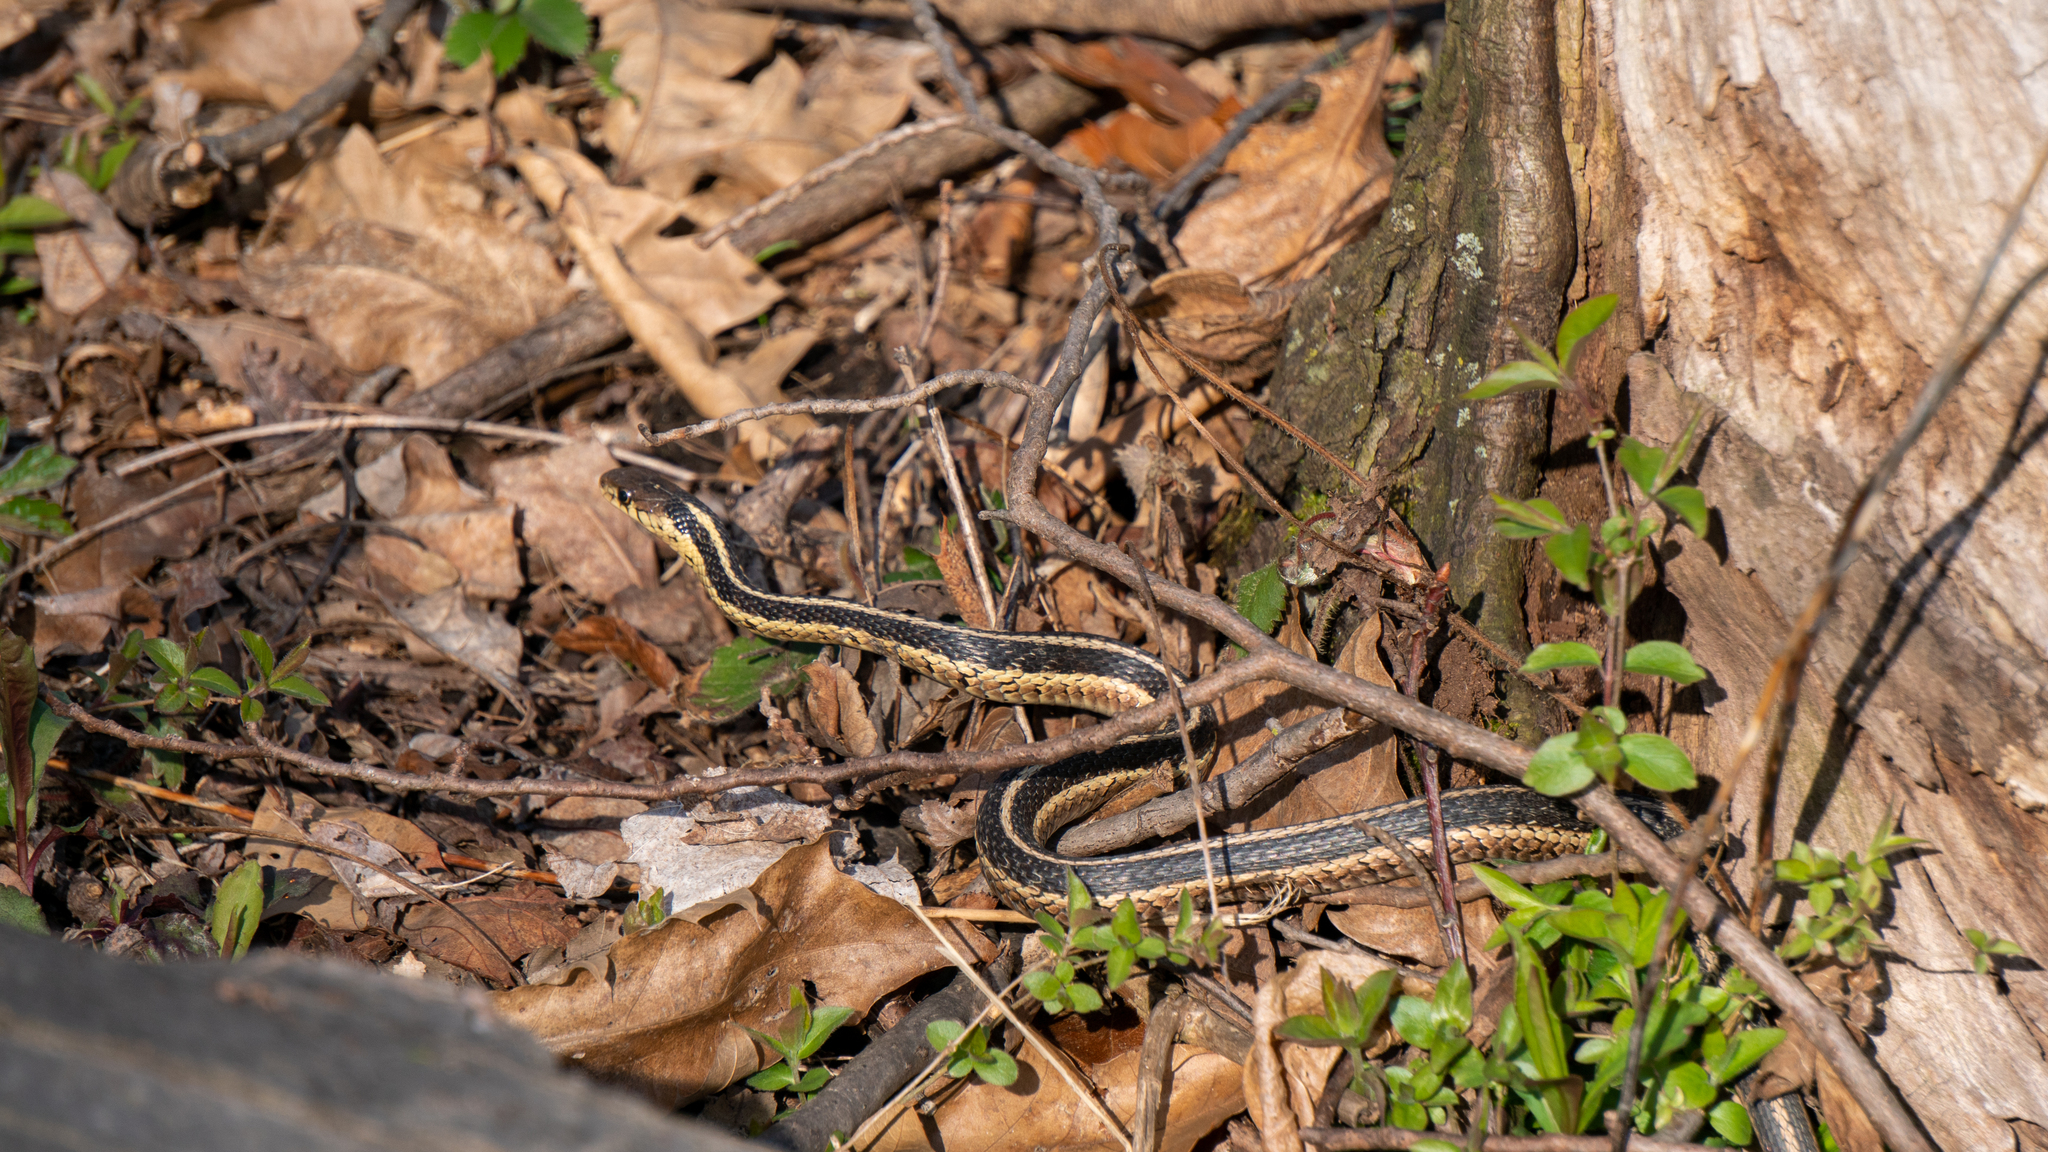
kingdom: Animalia
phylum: Chordata
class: Squamata
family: Colubridae
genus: Thamnophis
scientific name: Thamnophis sirtalis
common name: Common garter snake
